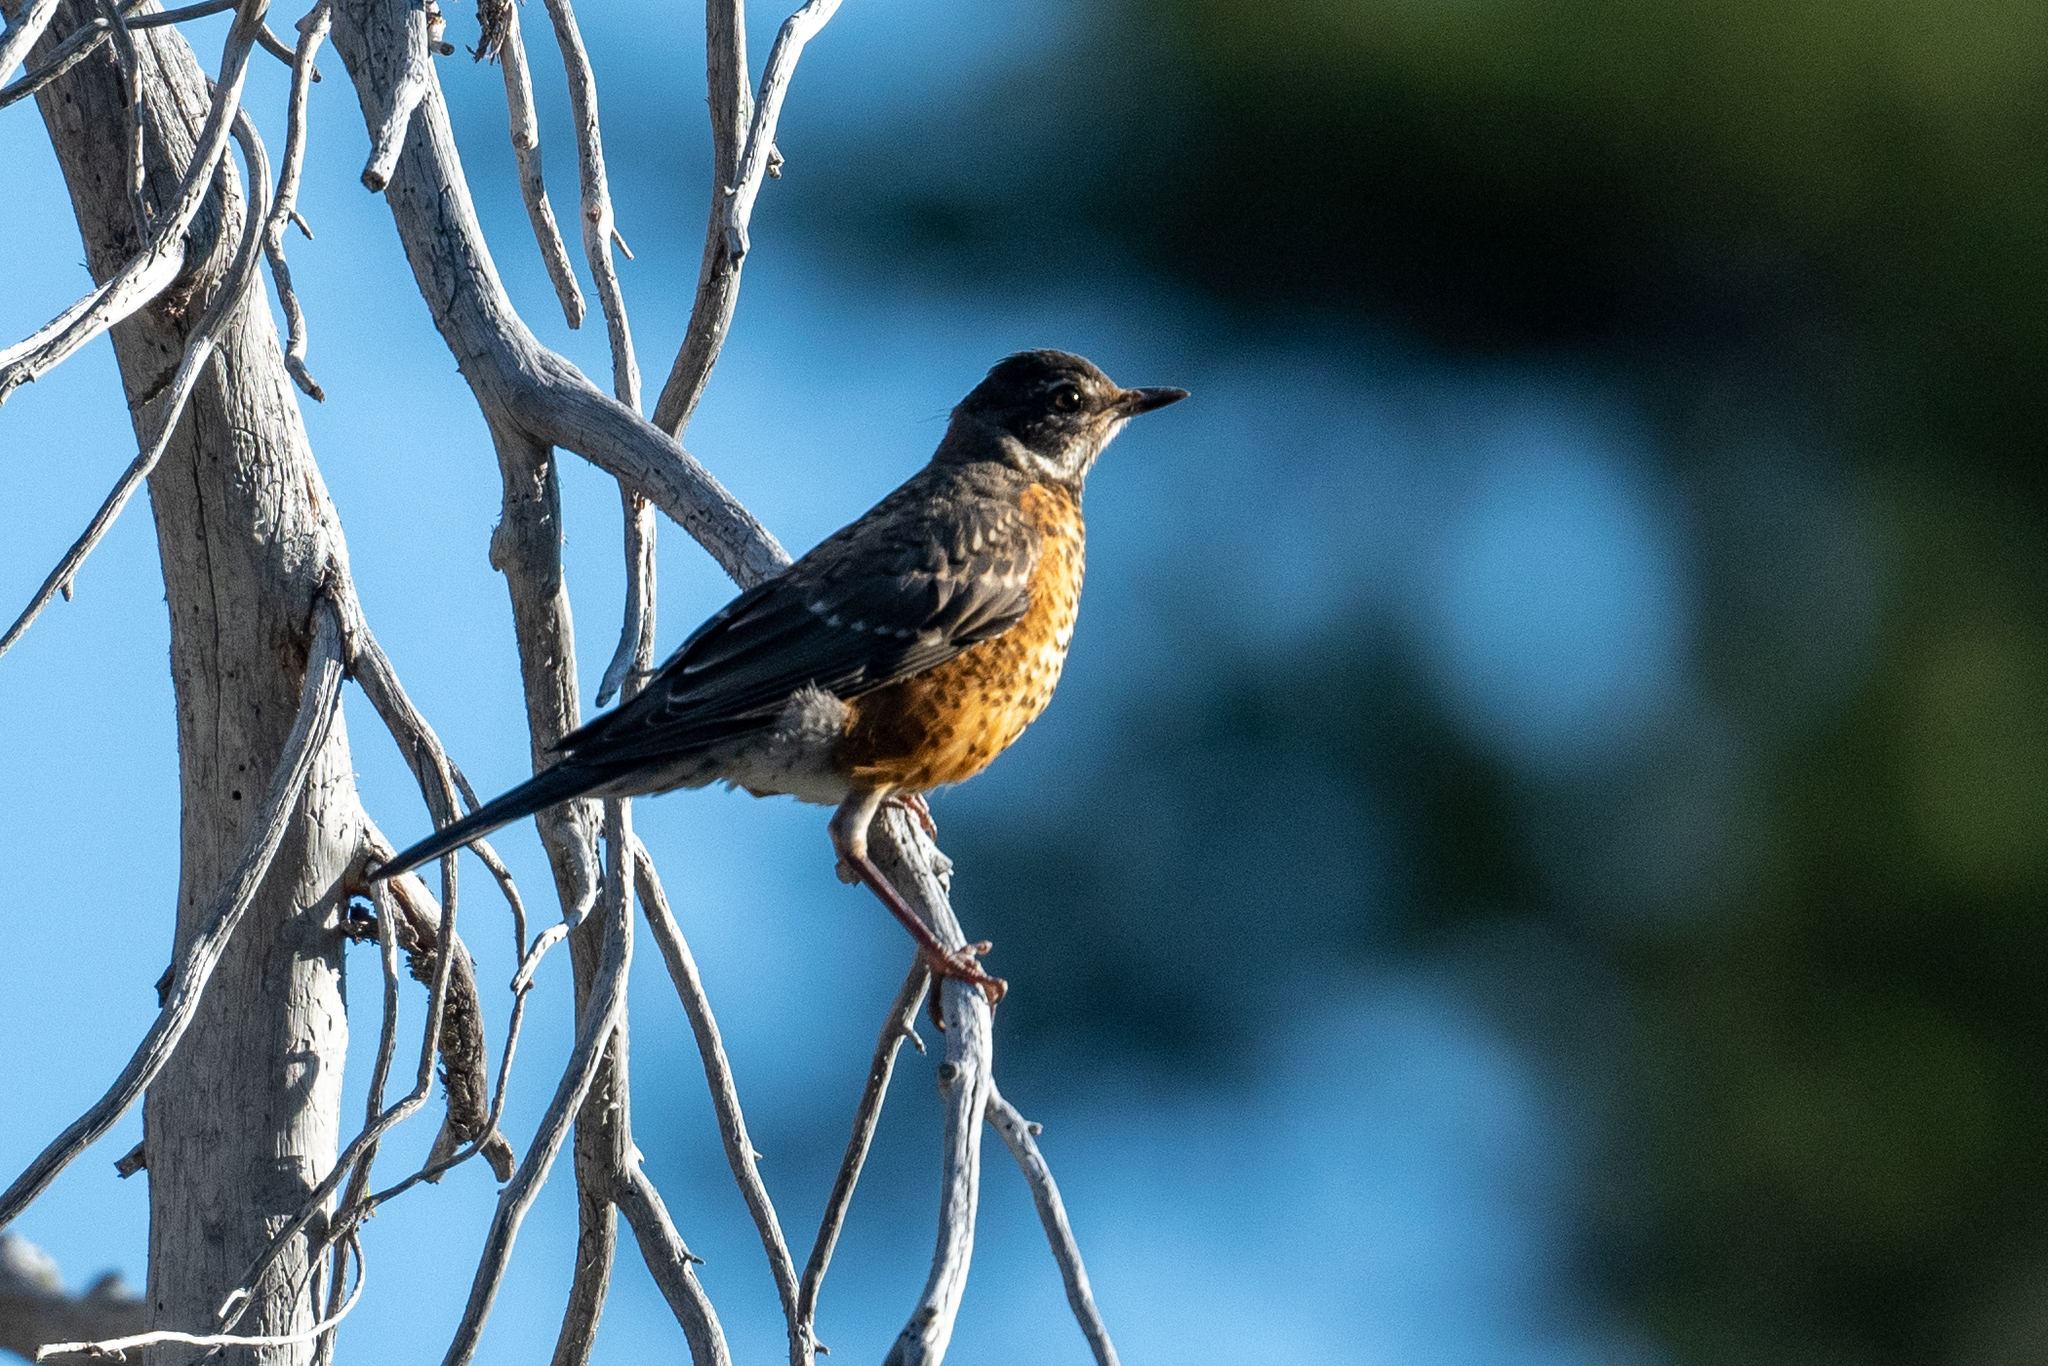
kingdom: Animalia
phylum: Chordata
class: Aves
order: Passeriformes
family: Turdidae
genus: Turdus
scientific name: Turdus migratorius
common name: American robin
